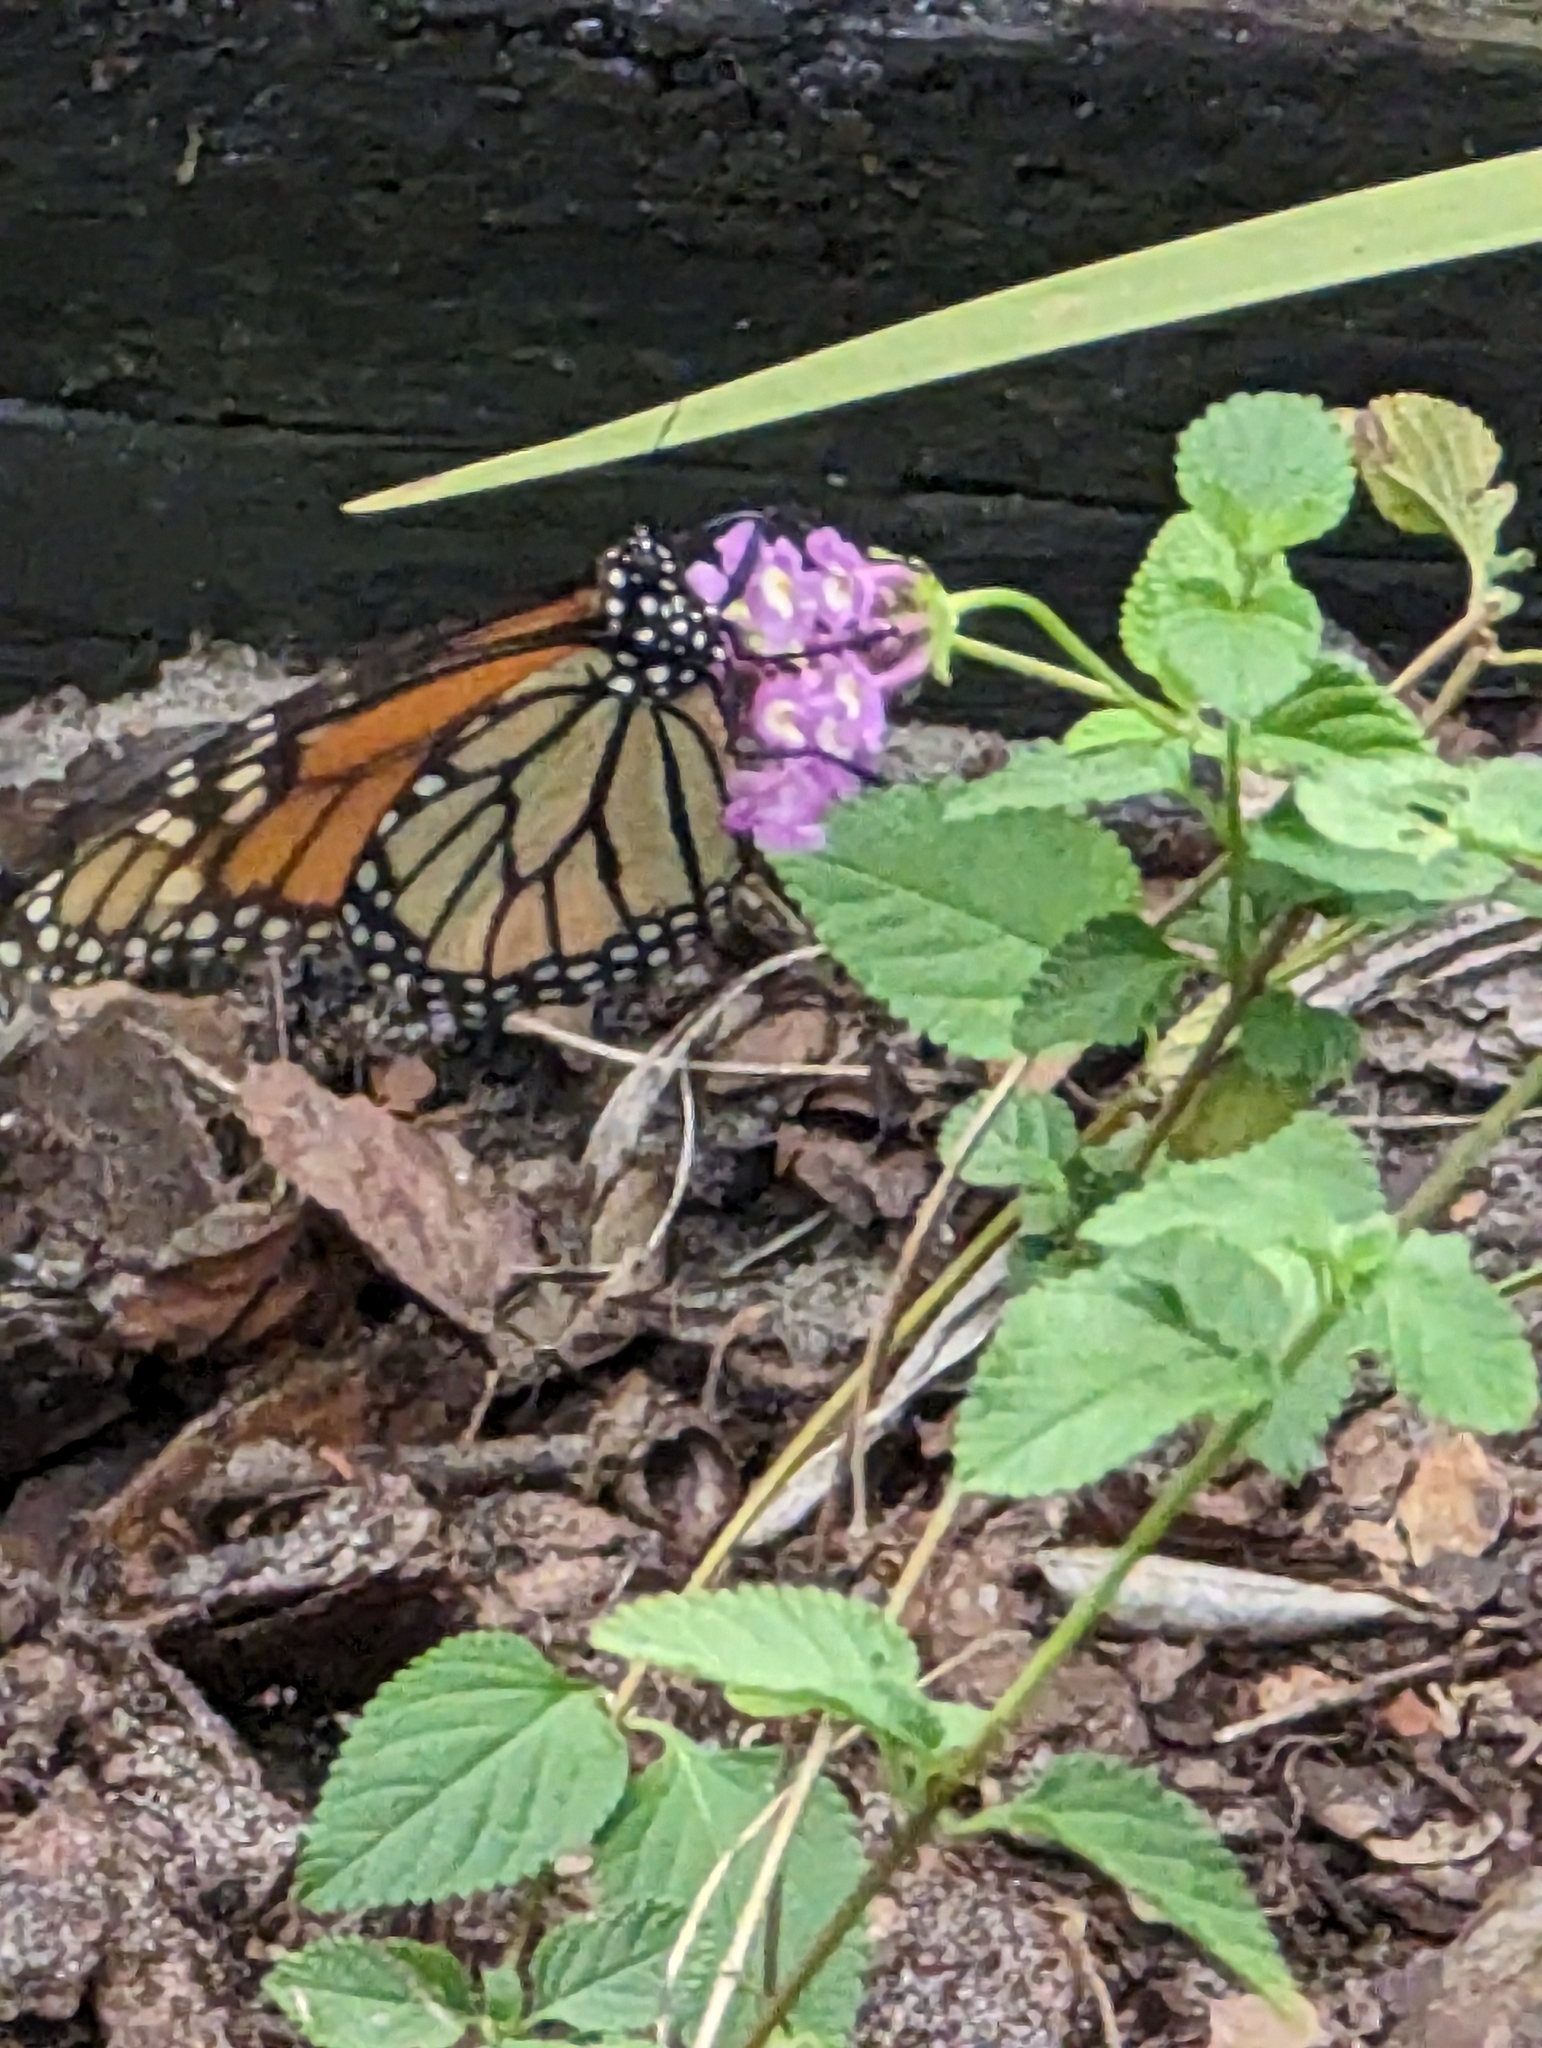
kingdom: Animalia
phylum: Arthropoda
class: Insecta
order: Lepidoptera
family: Nymphalidae
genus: Danaus
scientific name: Danaus plexippus
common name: Monarch
